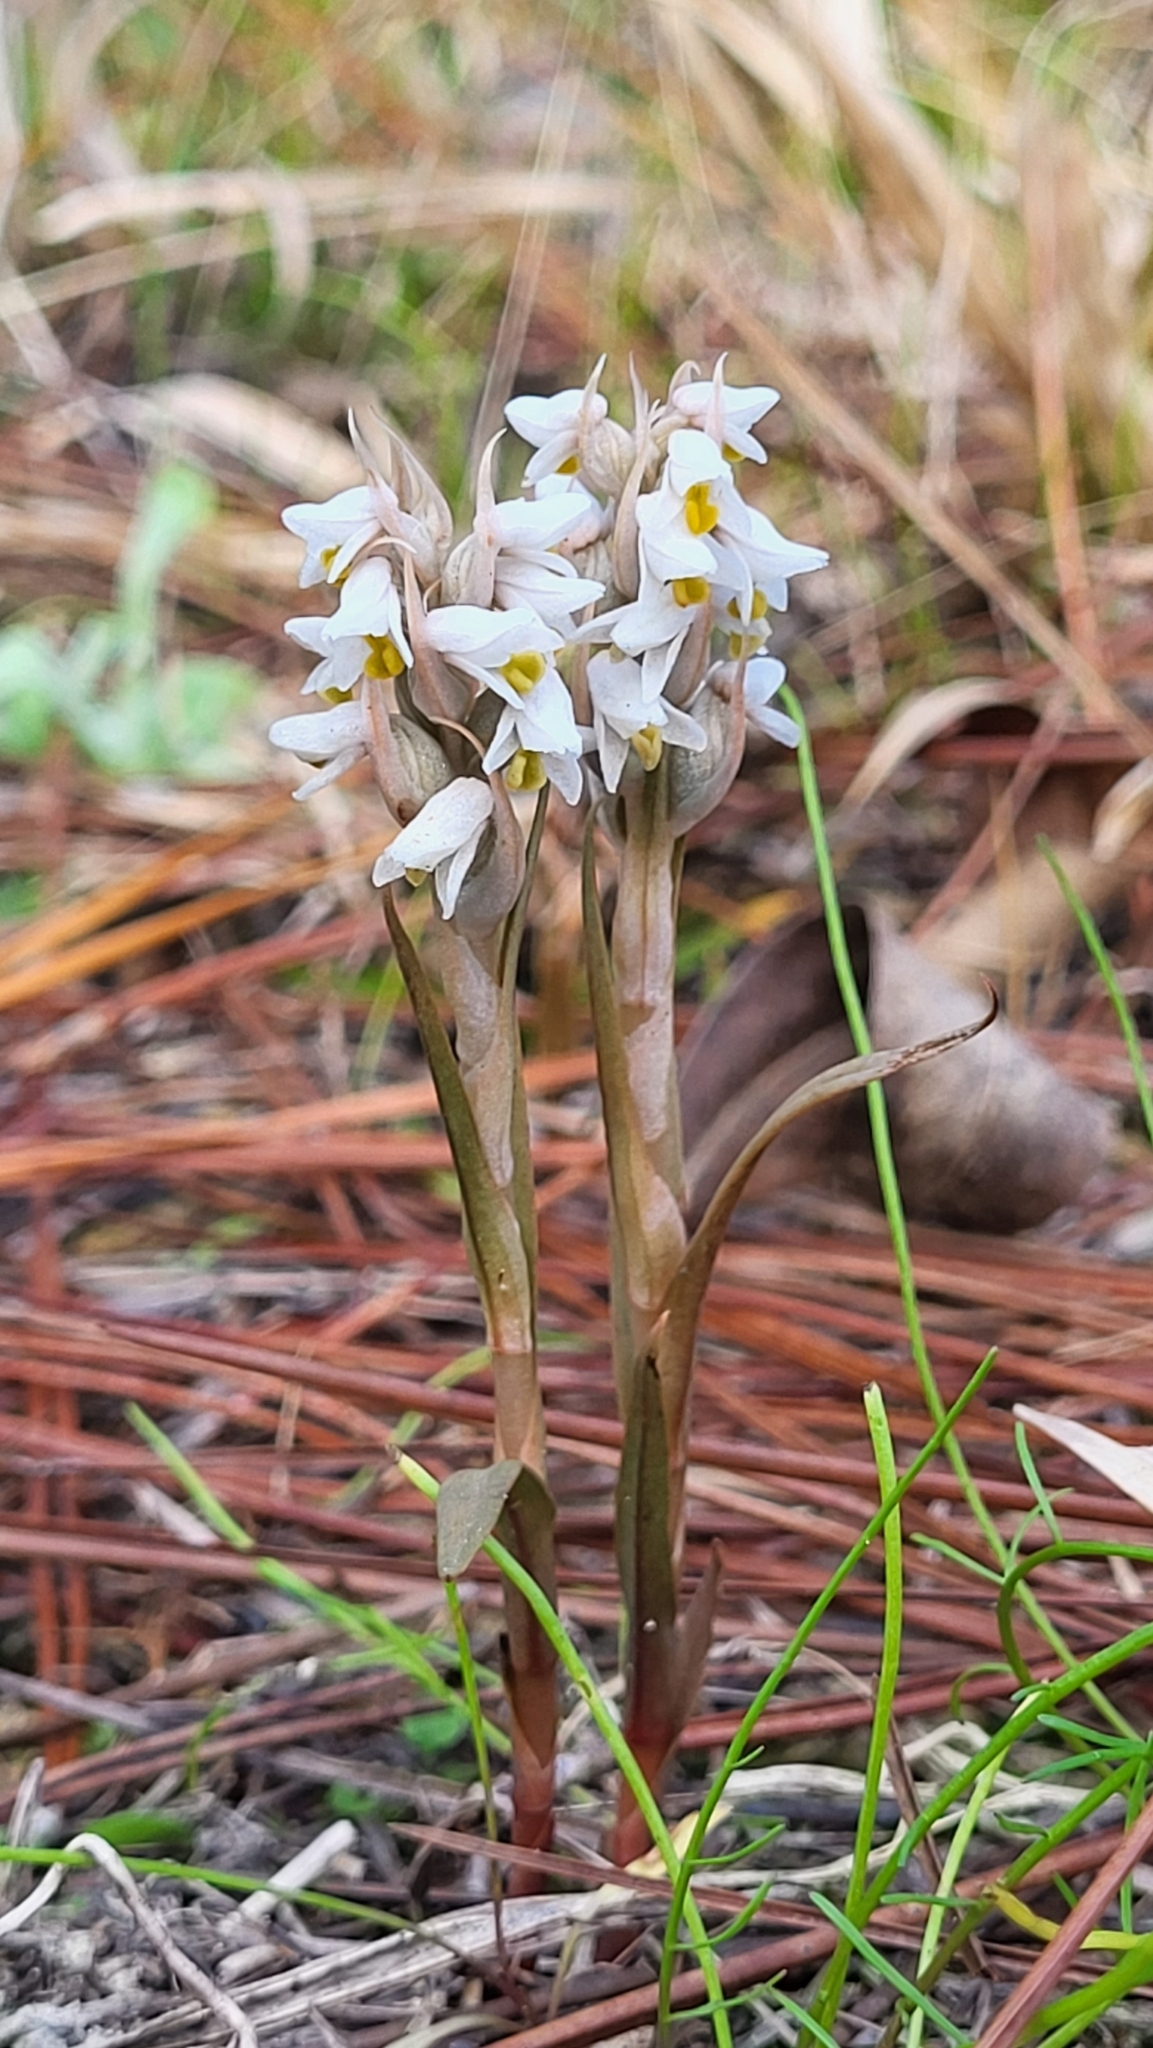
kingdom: Plantae
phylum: Tracheophyta
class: Liliopsida
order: Asparagales
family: Orchidaceae
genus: Zeuxine
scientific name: Zeuxine strateumatica
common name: Soldier's orchid
